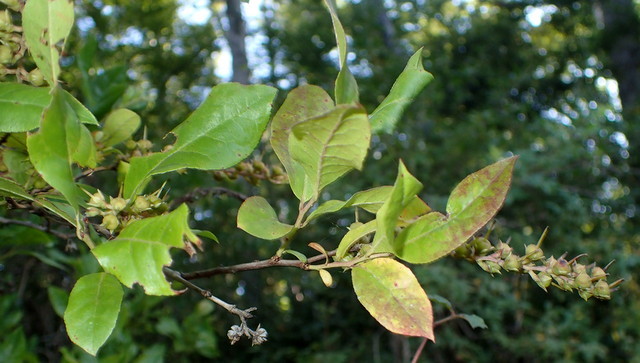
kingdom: Plantae
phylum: Tracheophyta
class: Magnoliopsida
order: Ericales
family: Ericaceae
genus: Eubotrys
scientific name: Eubotrys racemosa
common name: Fetterbush
